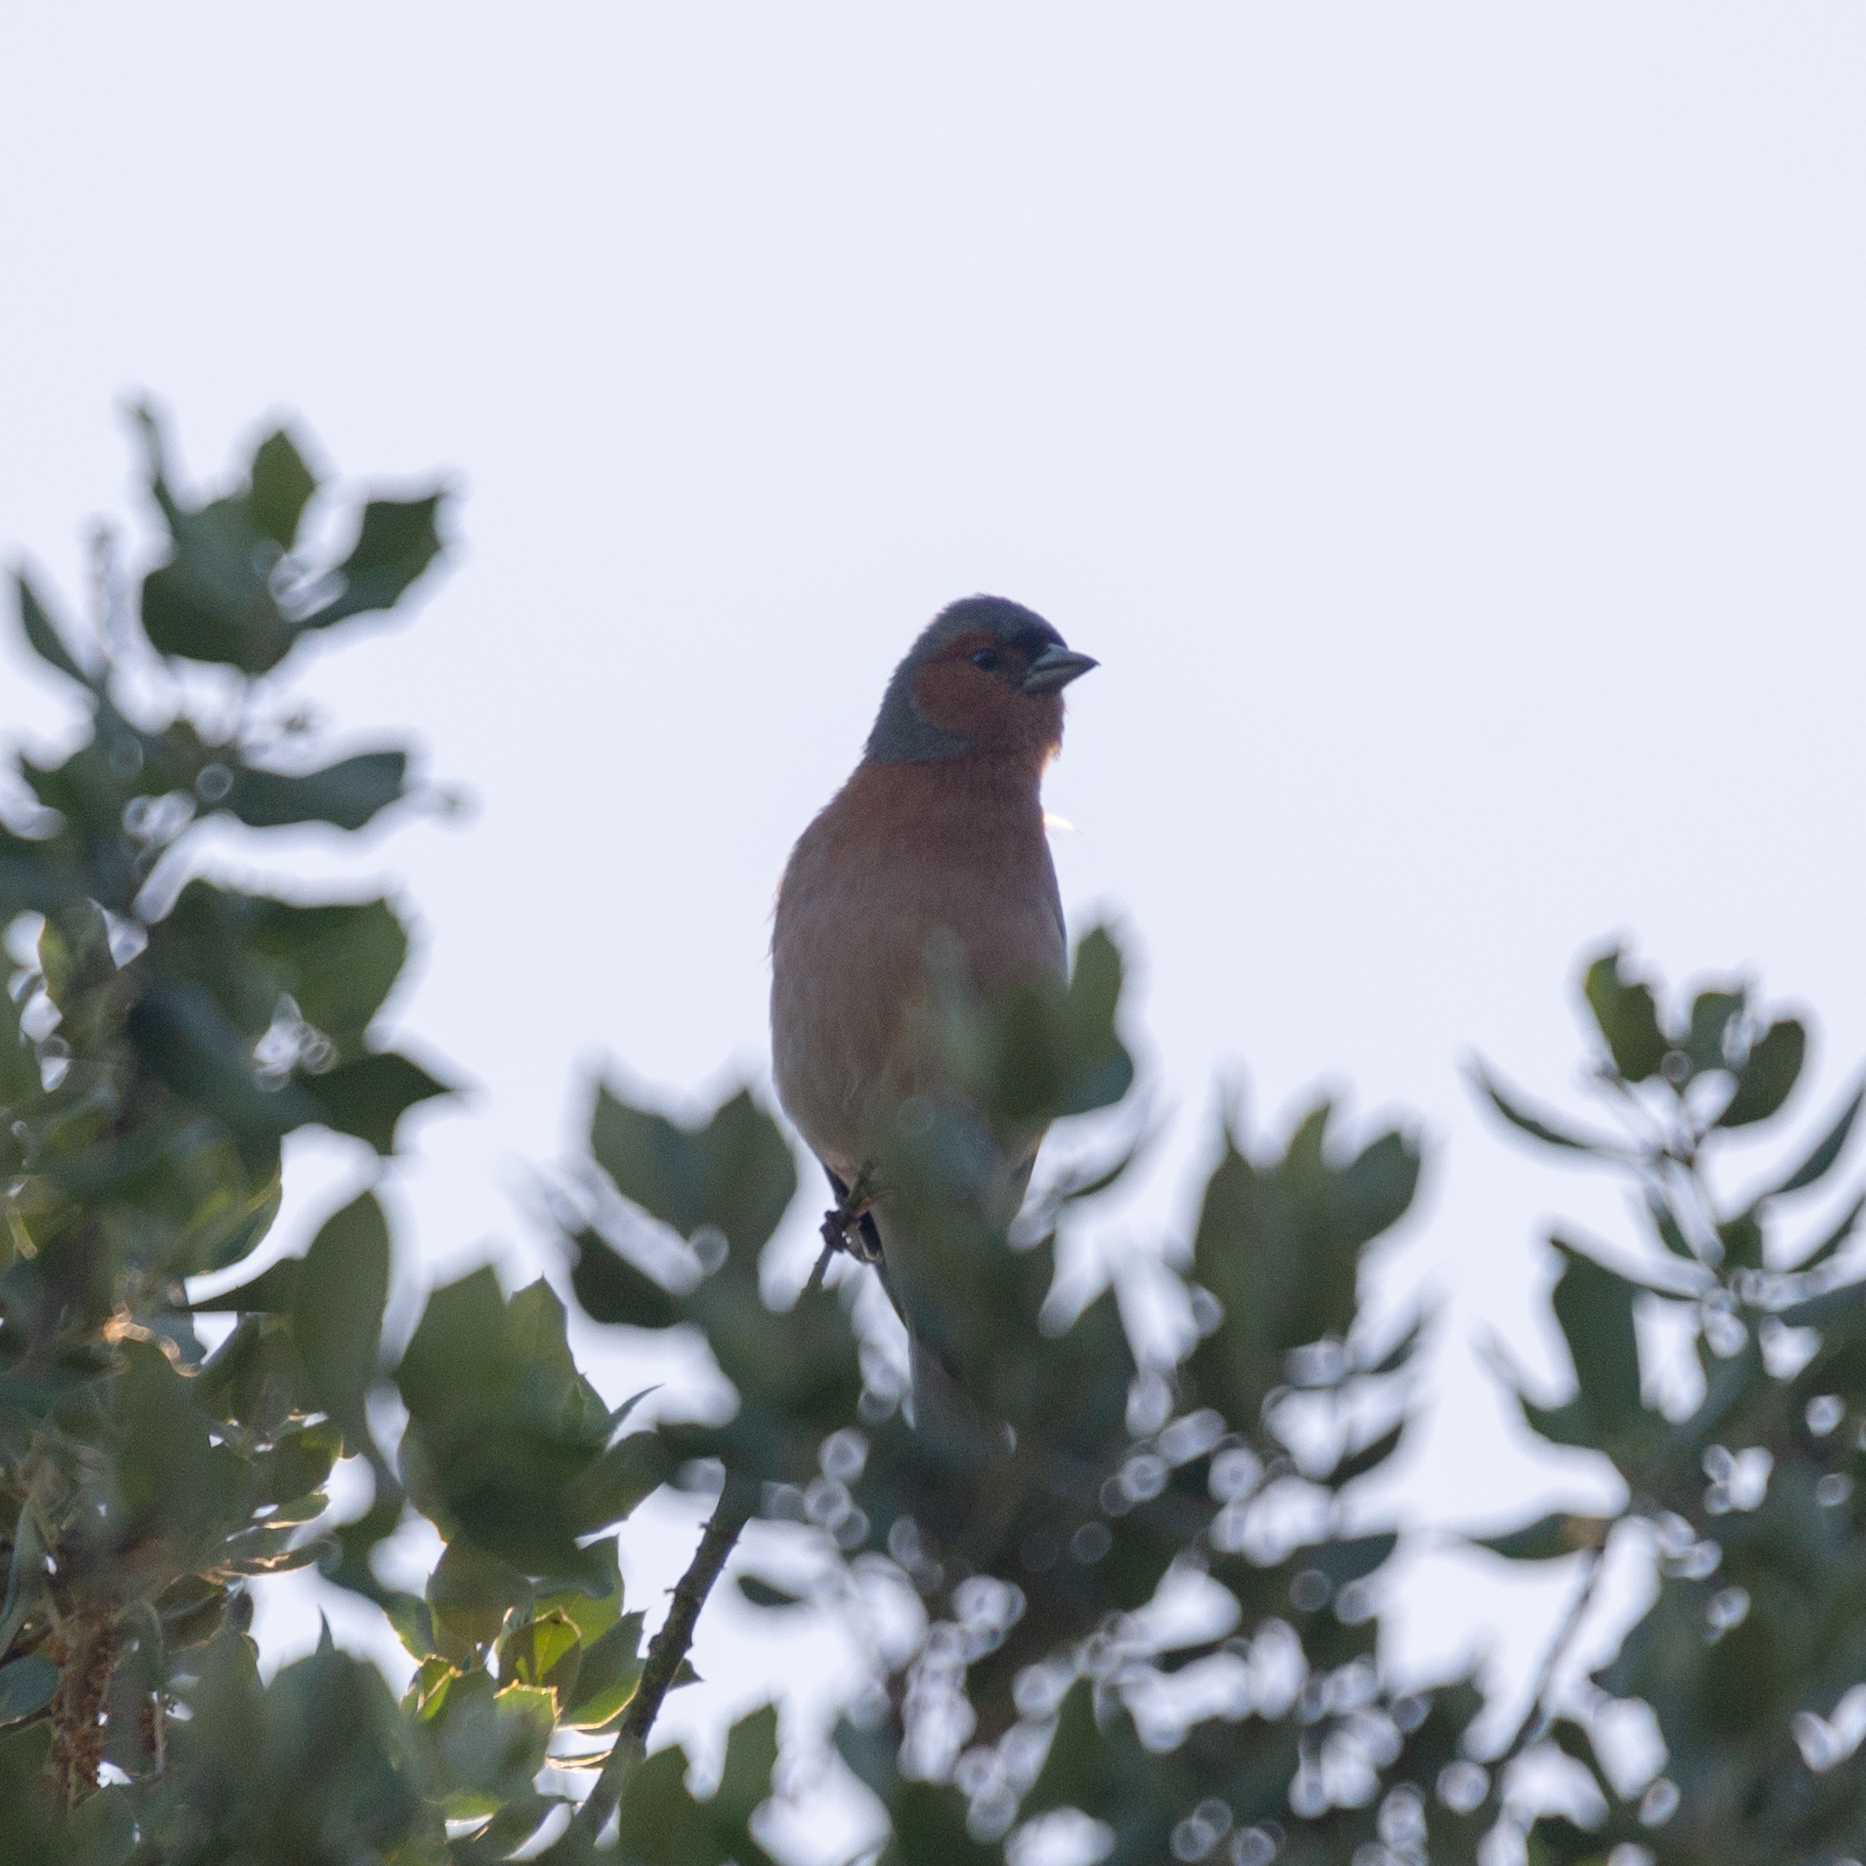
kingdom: Animalia
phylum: Chordata
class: Aves
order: Passeriformes
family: Fringillidae
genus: Fringilla
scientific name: Fringilla coelebs
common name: Common chaffinch
